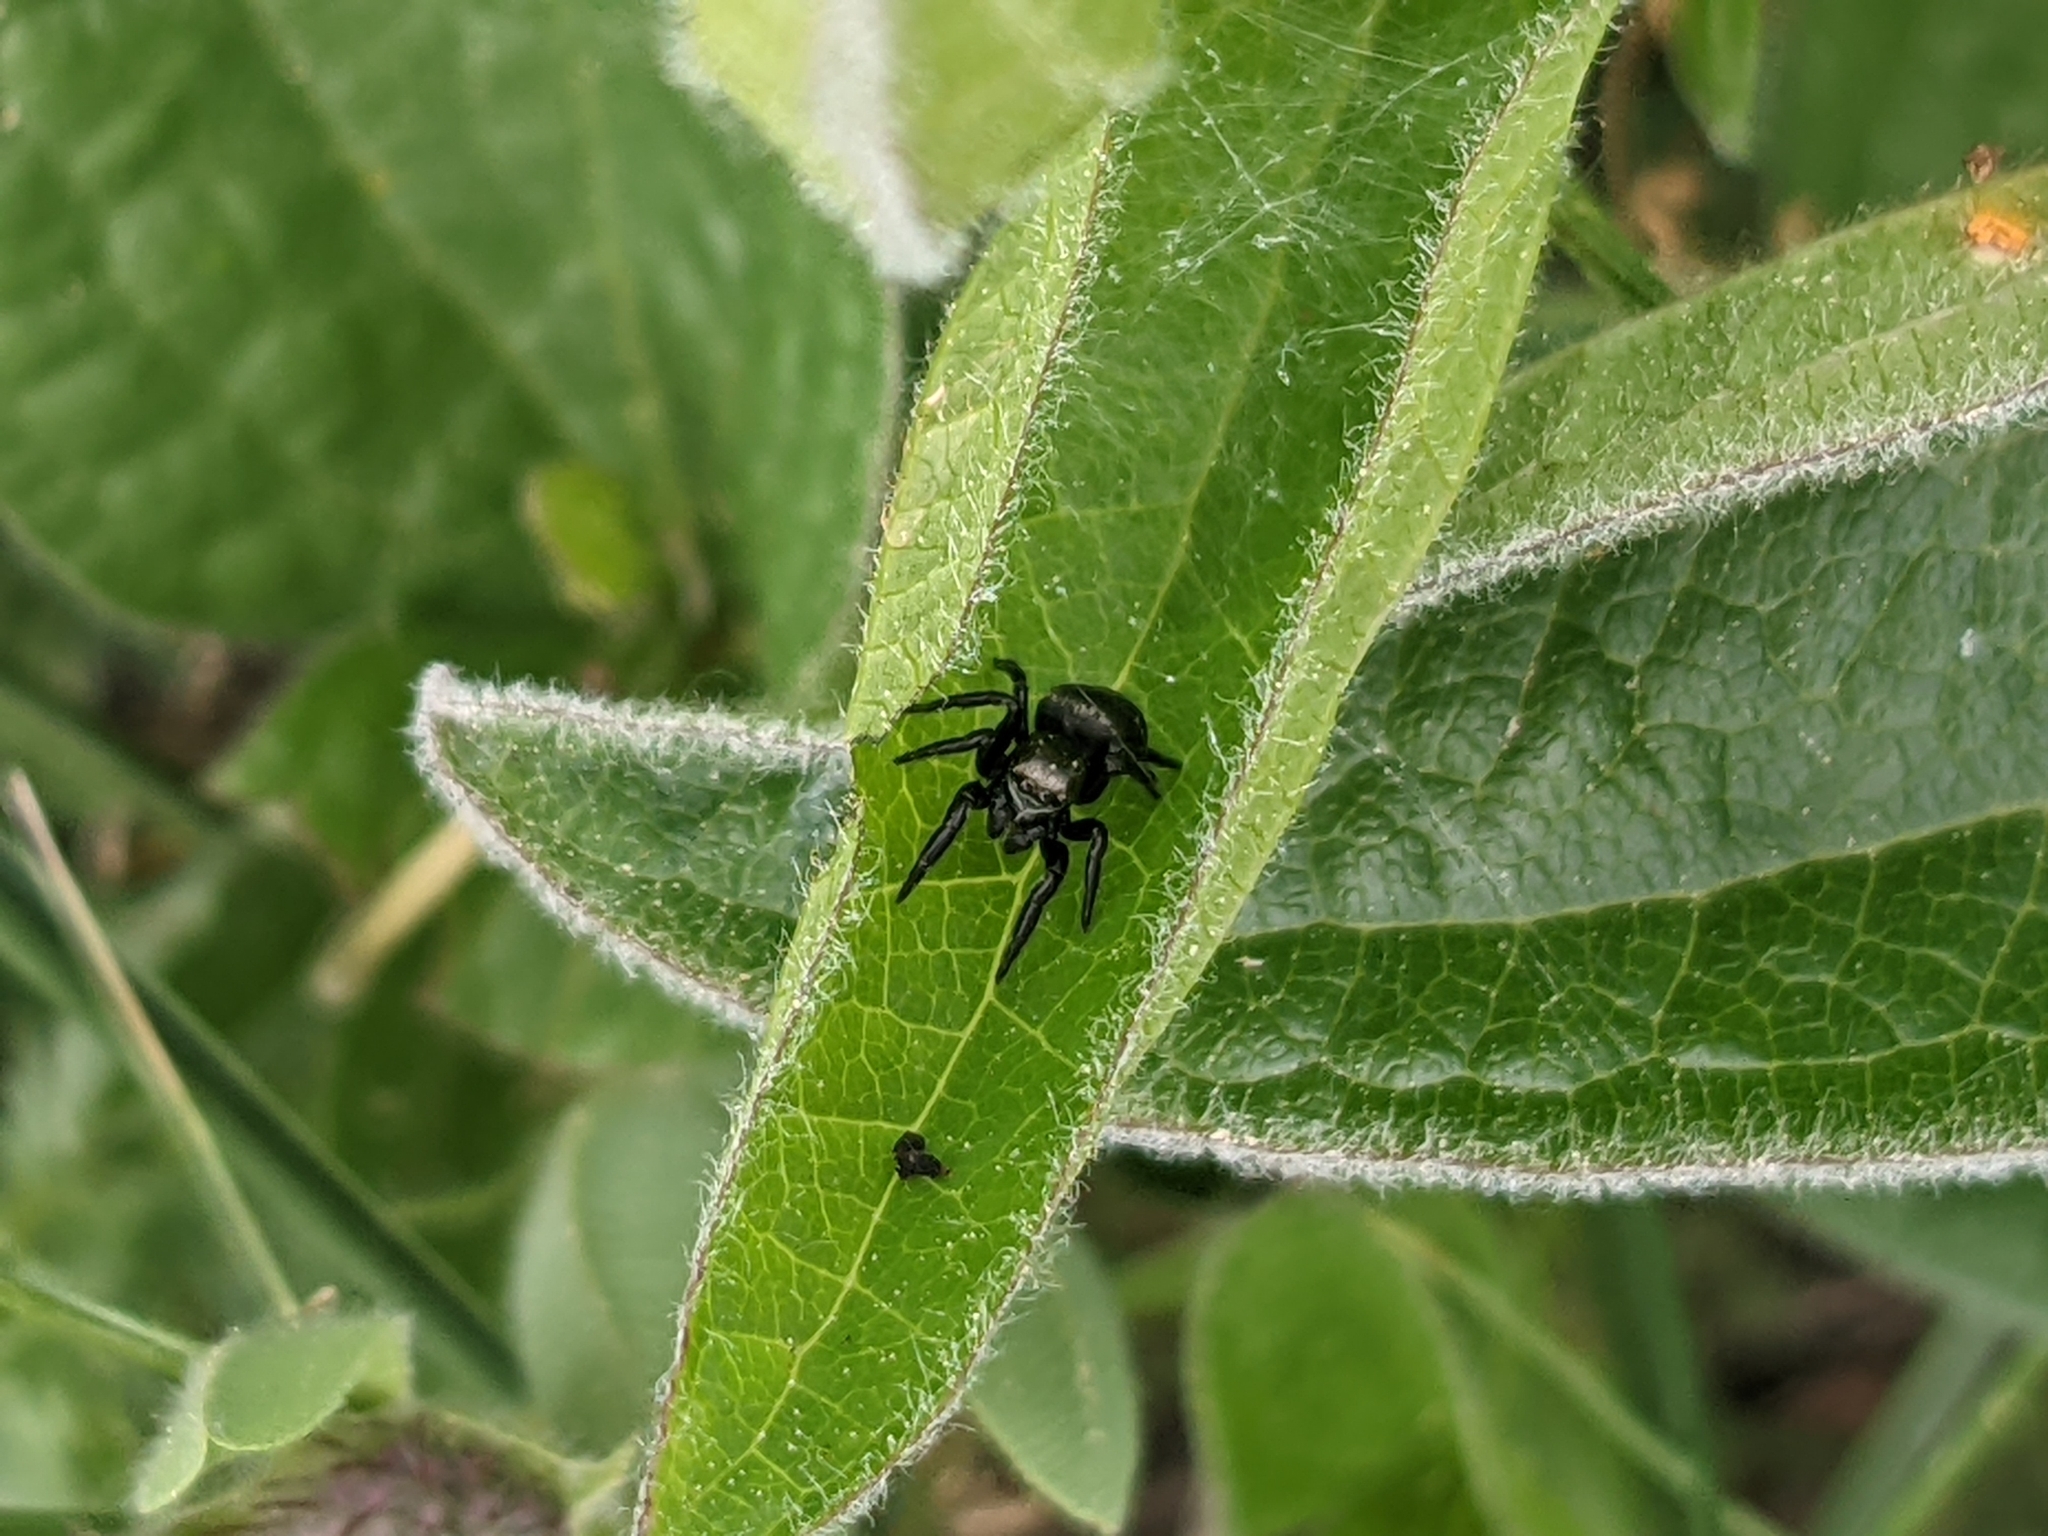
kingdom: Animalia
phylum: Arthropoda
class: Arachnida
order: Araneae
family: Salticidae
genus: Evarcha
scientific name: Evarcha arcuata
